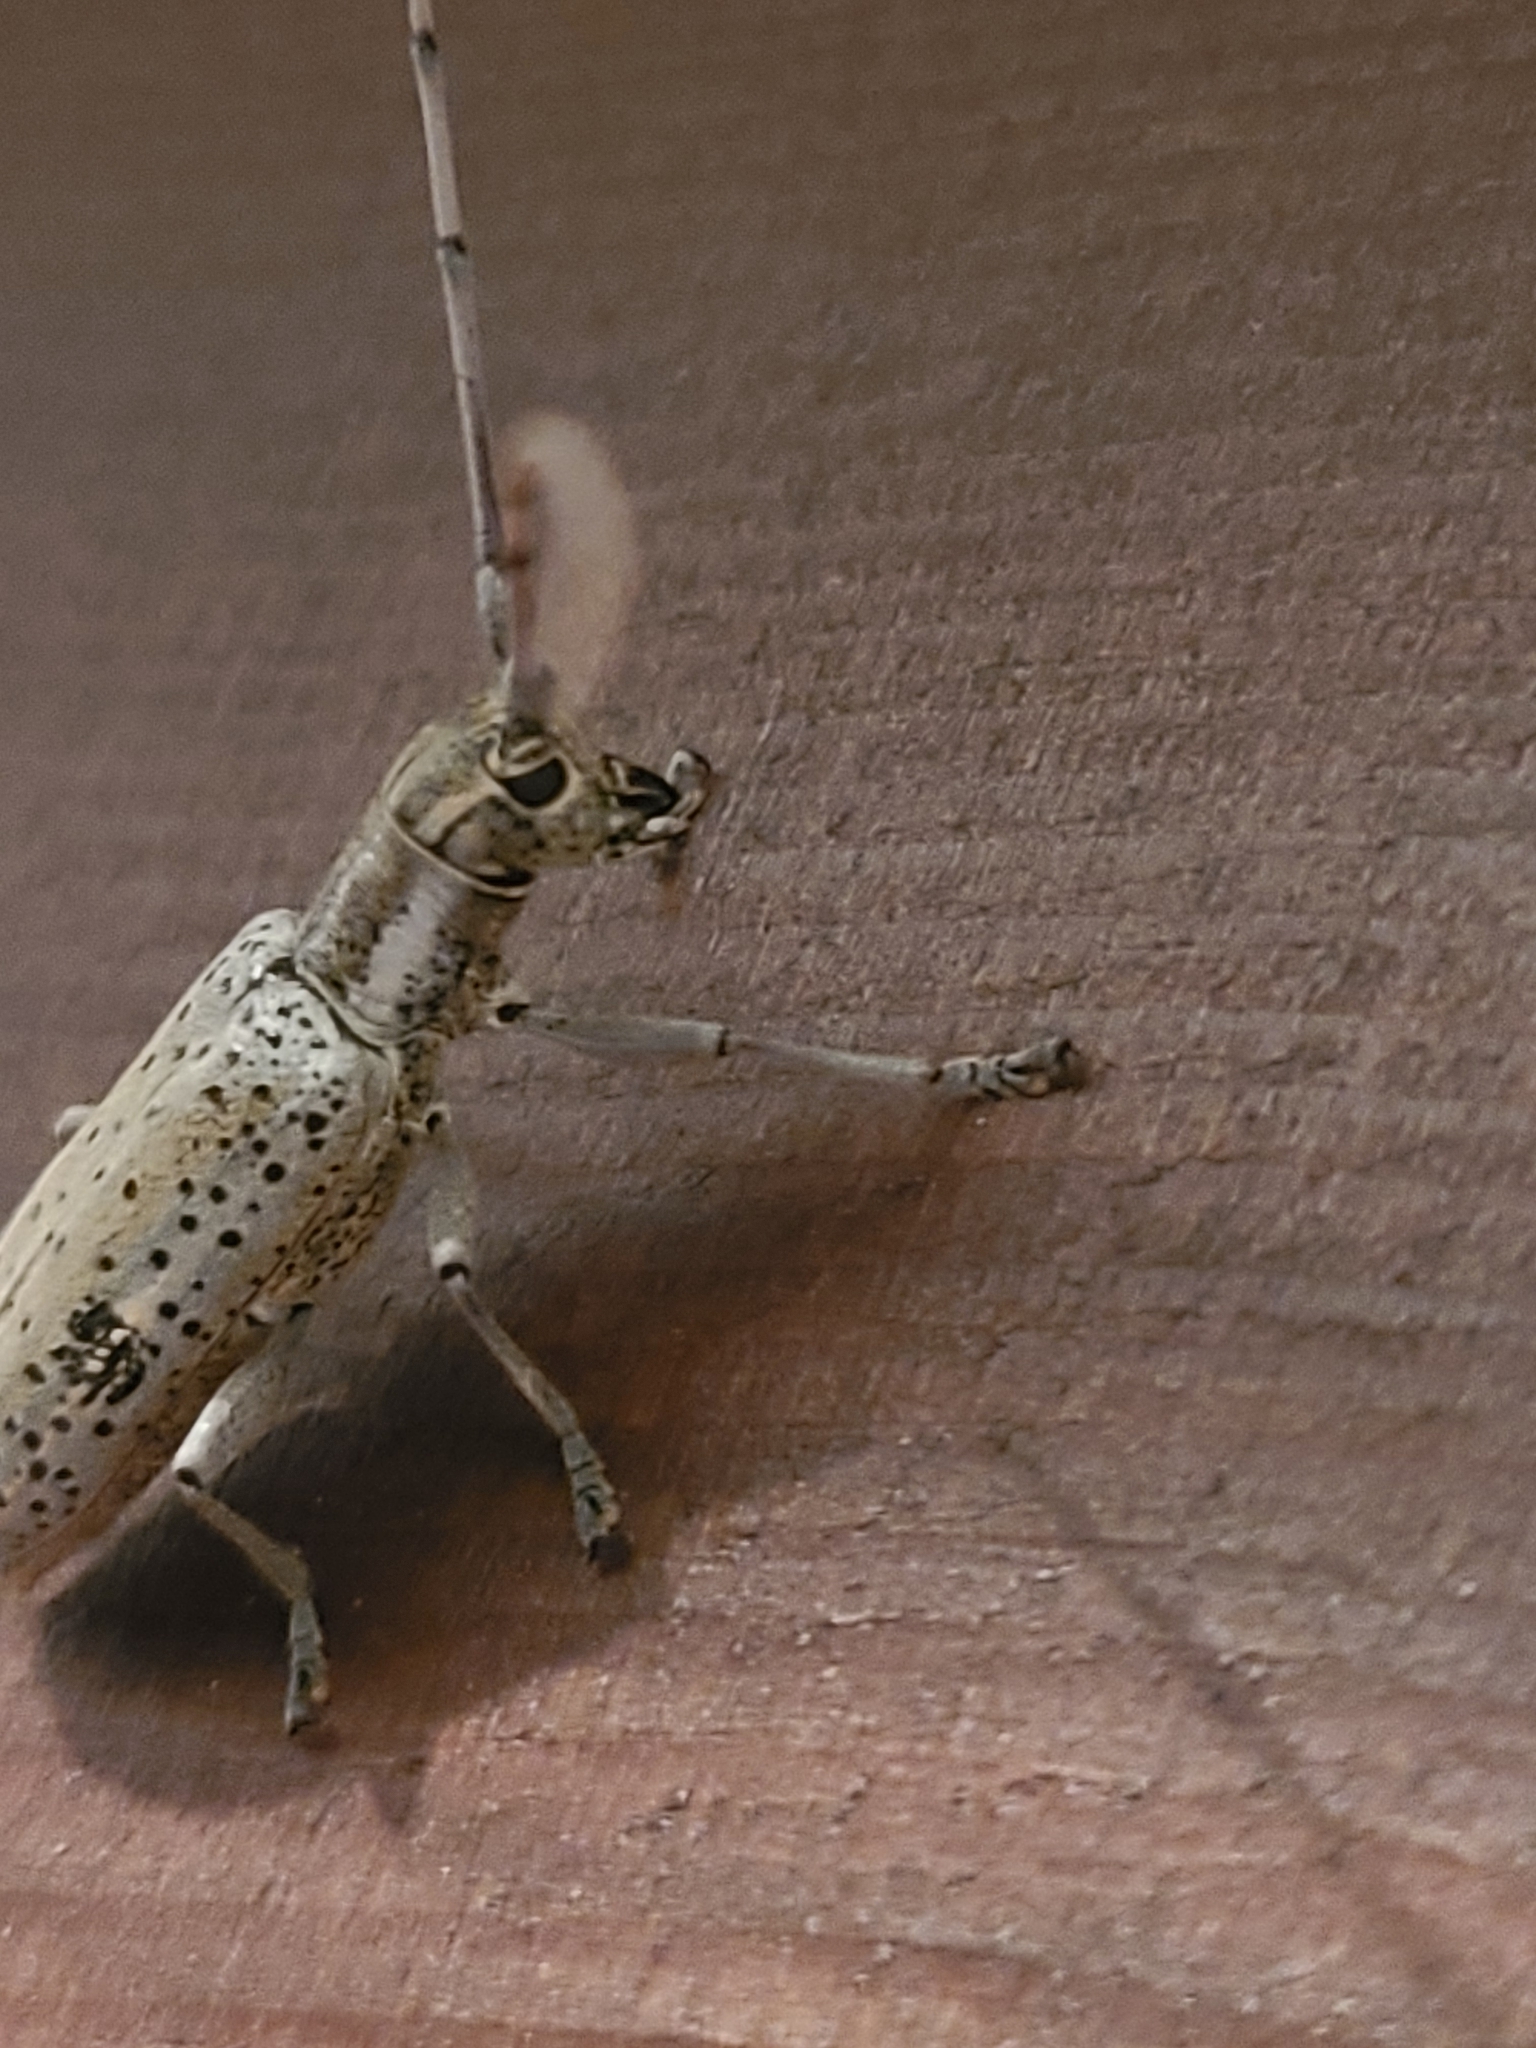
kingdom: Animalia
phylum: Arthropoda
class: Insecta
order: Coleoptera
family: Cerambycidae
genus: Dorcaschema
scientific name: Dorcaschema alternatum
